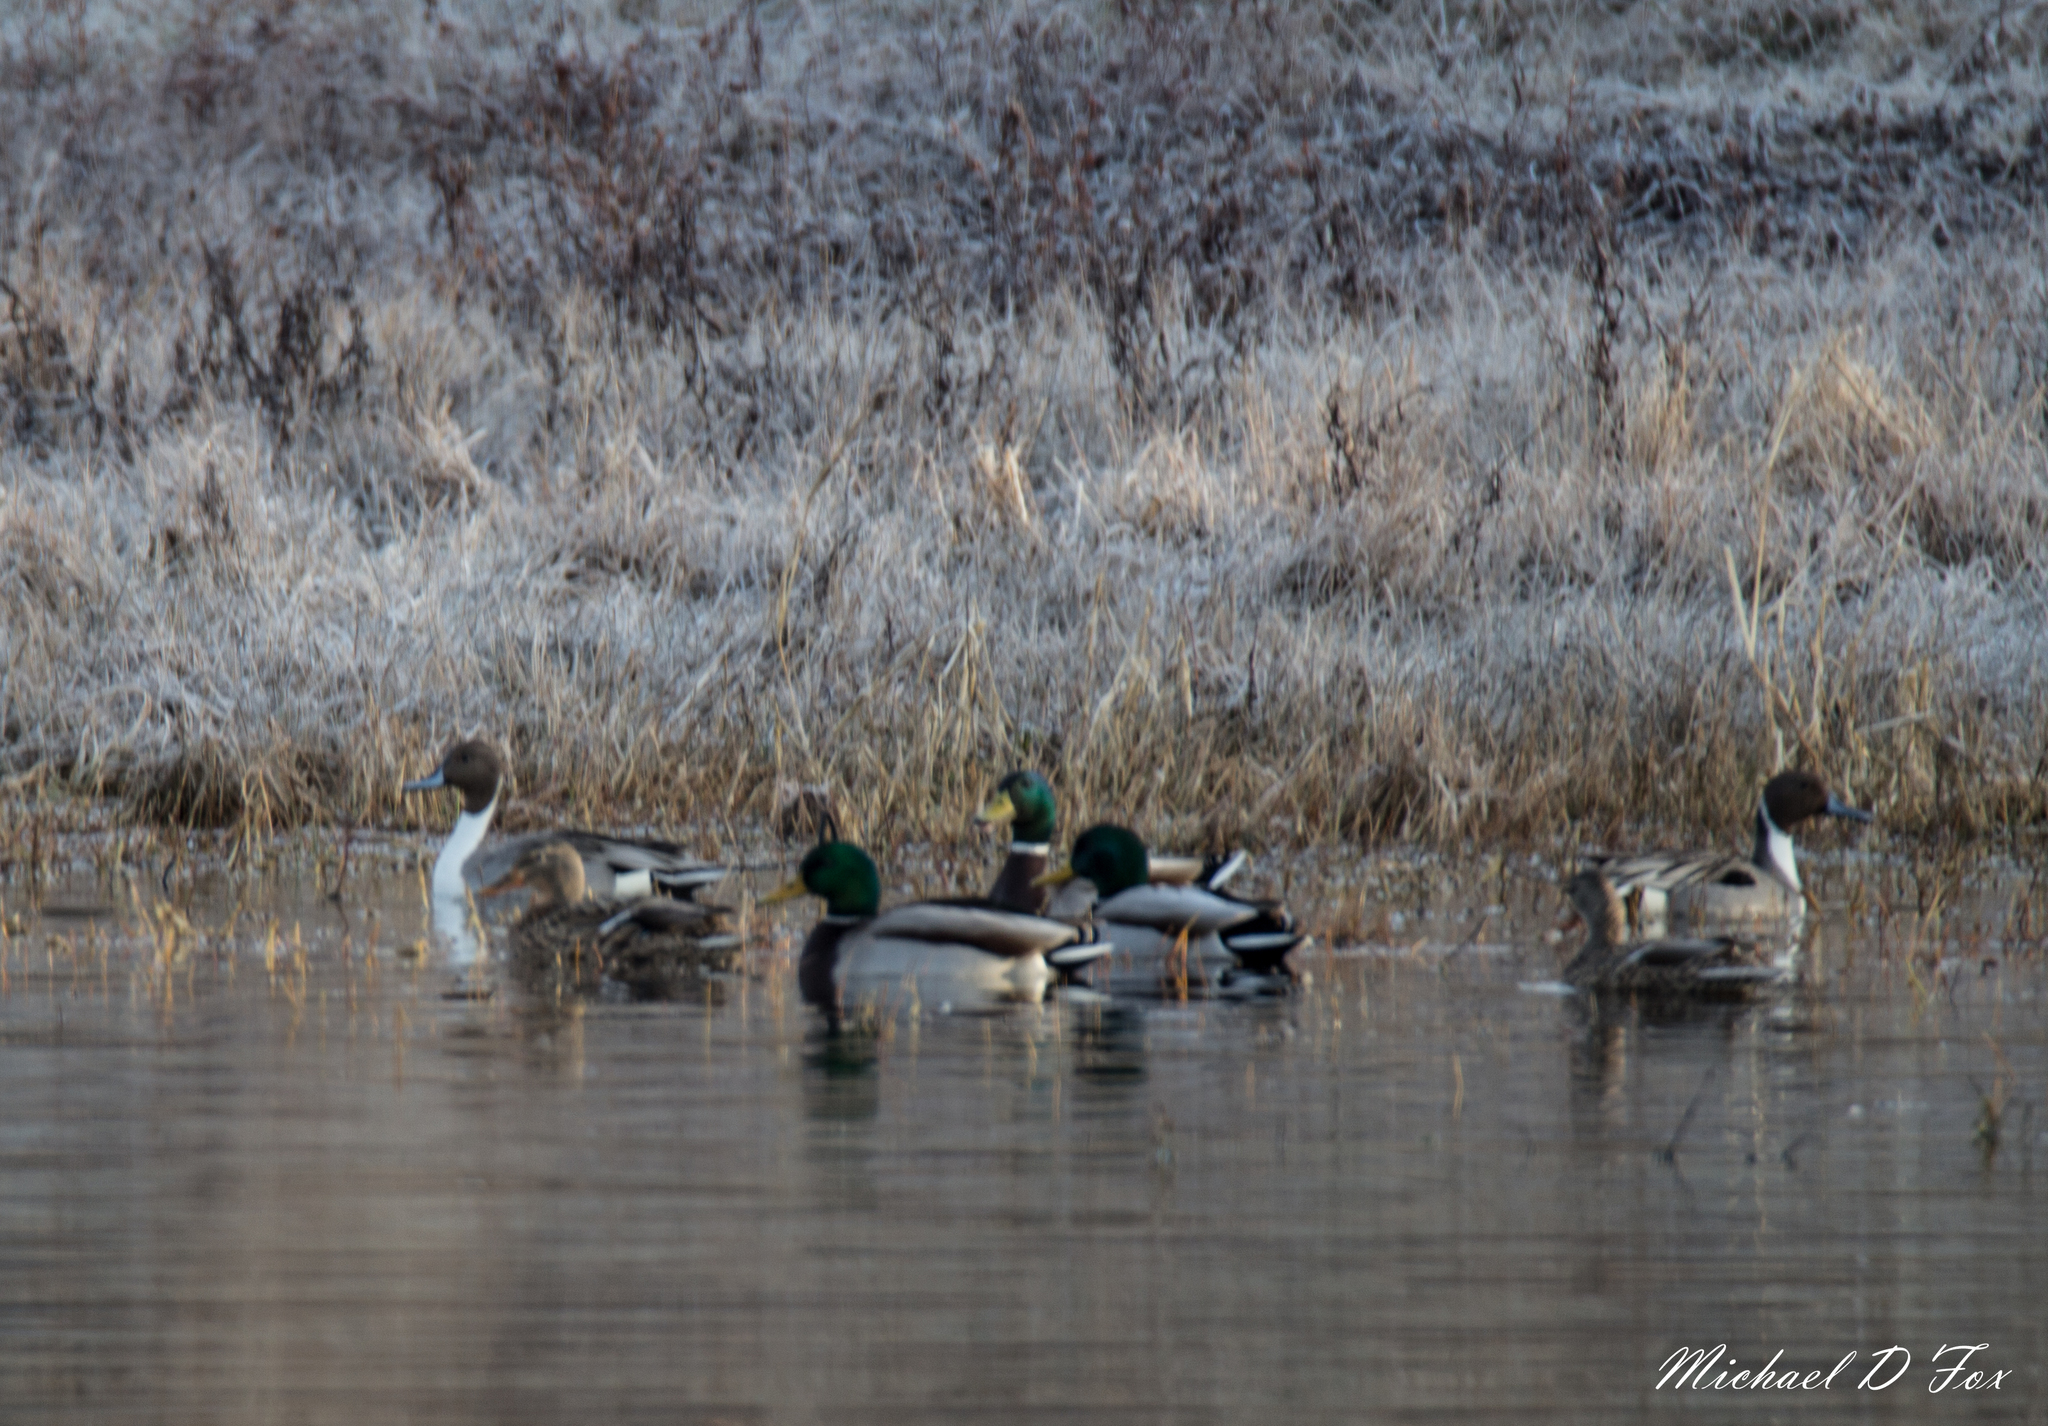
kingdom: Animalia
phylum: Chordata
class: Aves
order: Anseriformes
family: Anatidae
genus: Anas
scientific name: Anas platyrhynchos
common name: Mallard
